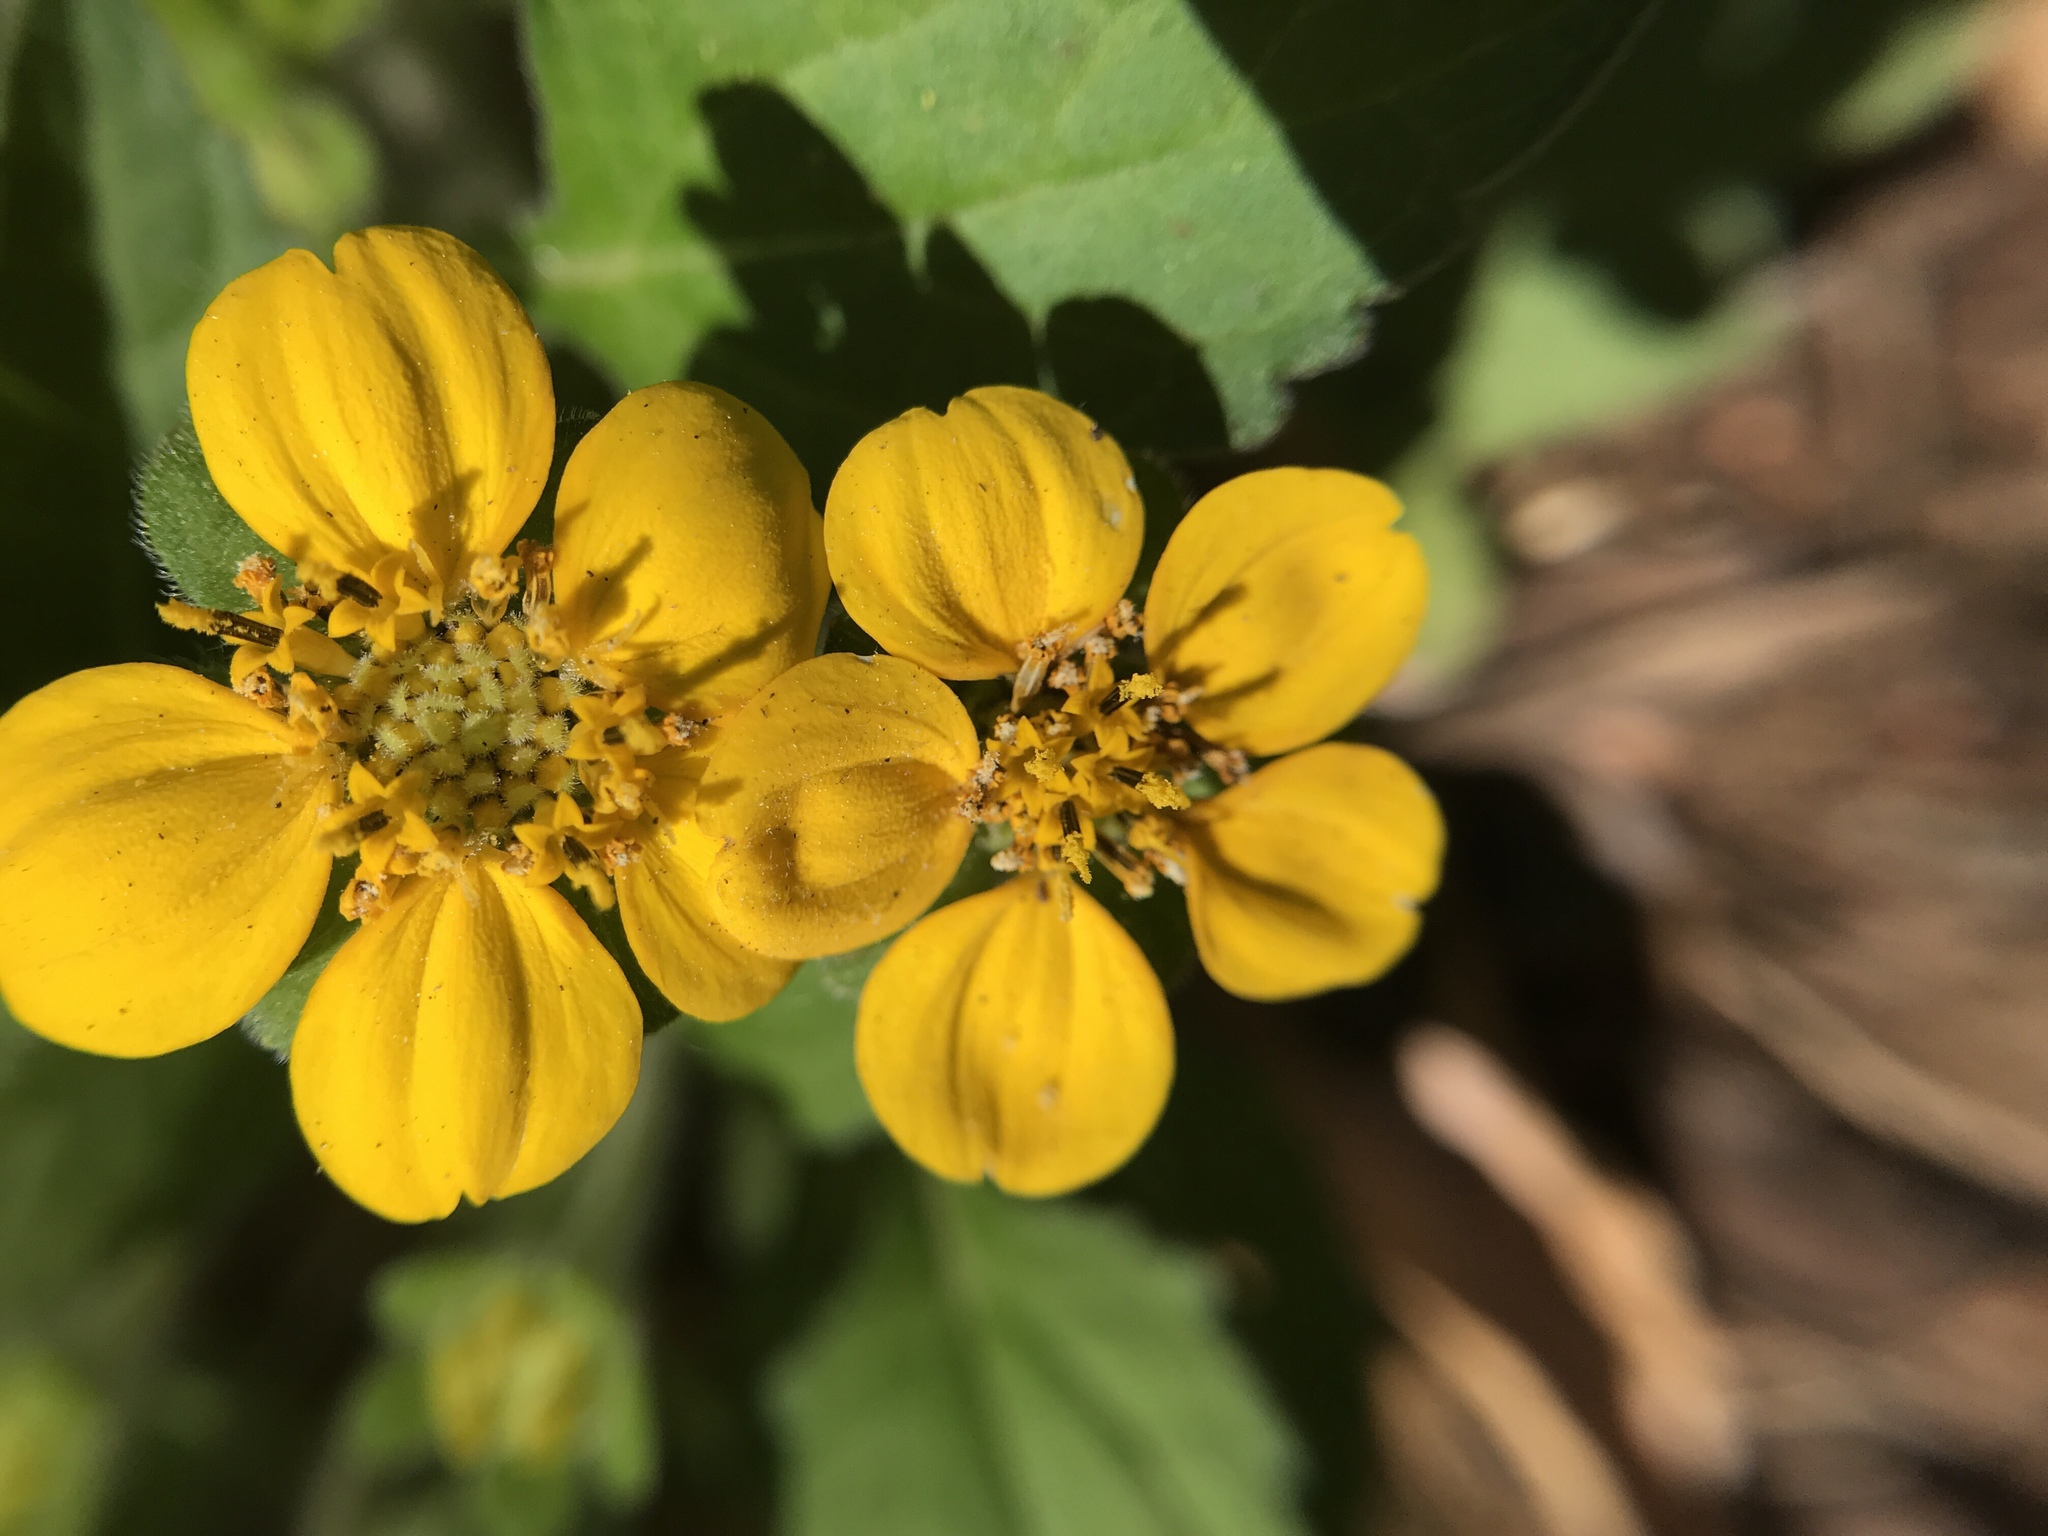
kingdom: Plantae
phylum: Tracheophyta
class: Magnoliopsida
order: Asterales
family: Asteraceae
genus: Chrysogonum
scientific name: Chrysogonum virginianum
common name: Golden-knee
